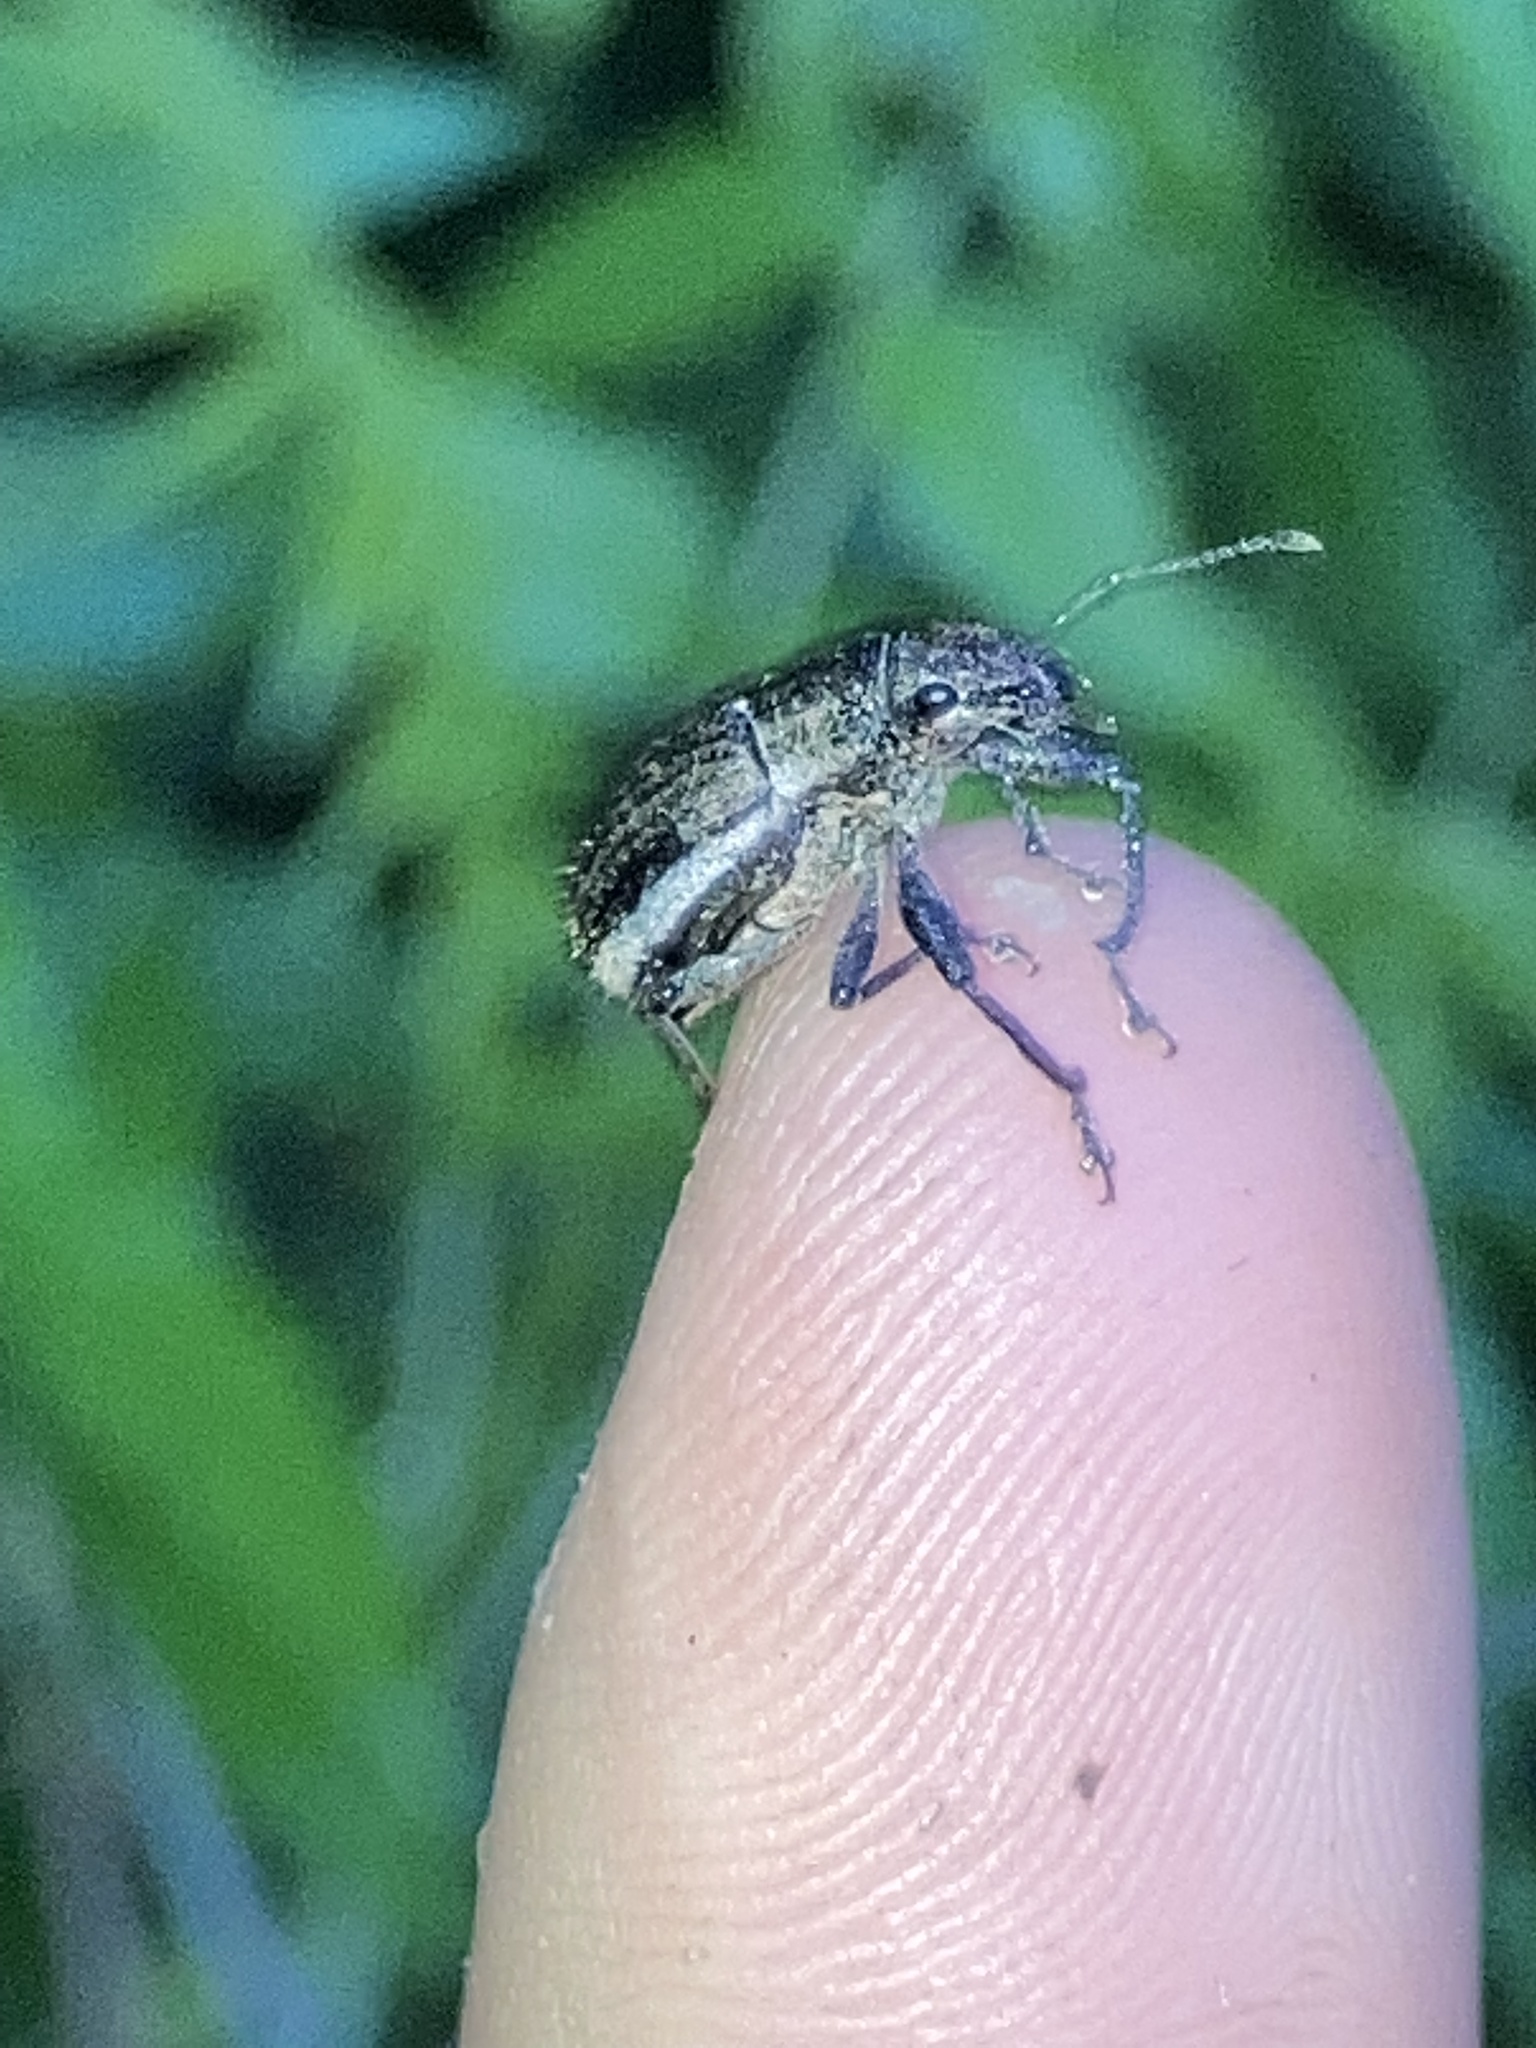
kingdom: Animalia
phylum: Arthropoda
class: Insecta
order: Coleoptera
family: Curculionidae
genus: Naupactus
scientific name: Naupactus leucoloma
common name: Whitefringed beetle
